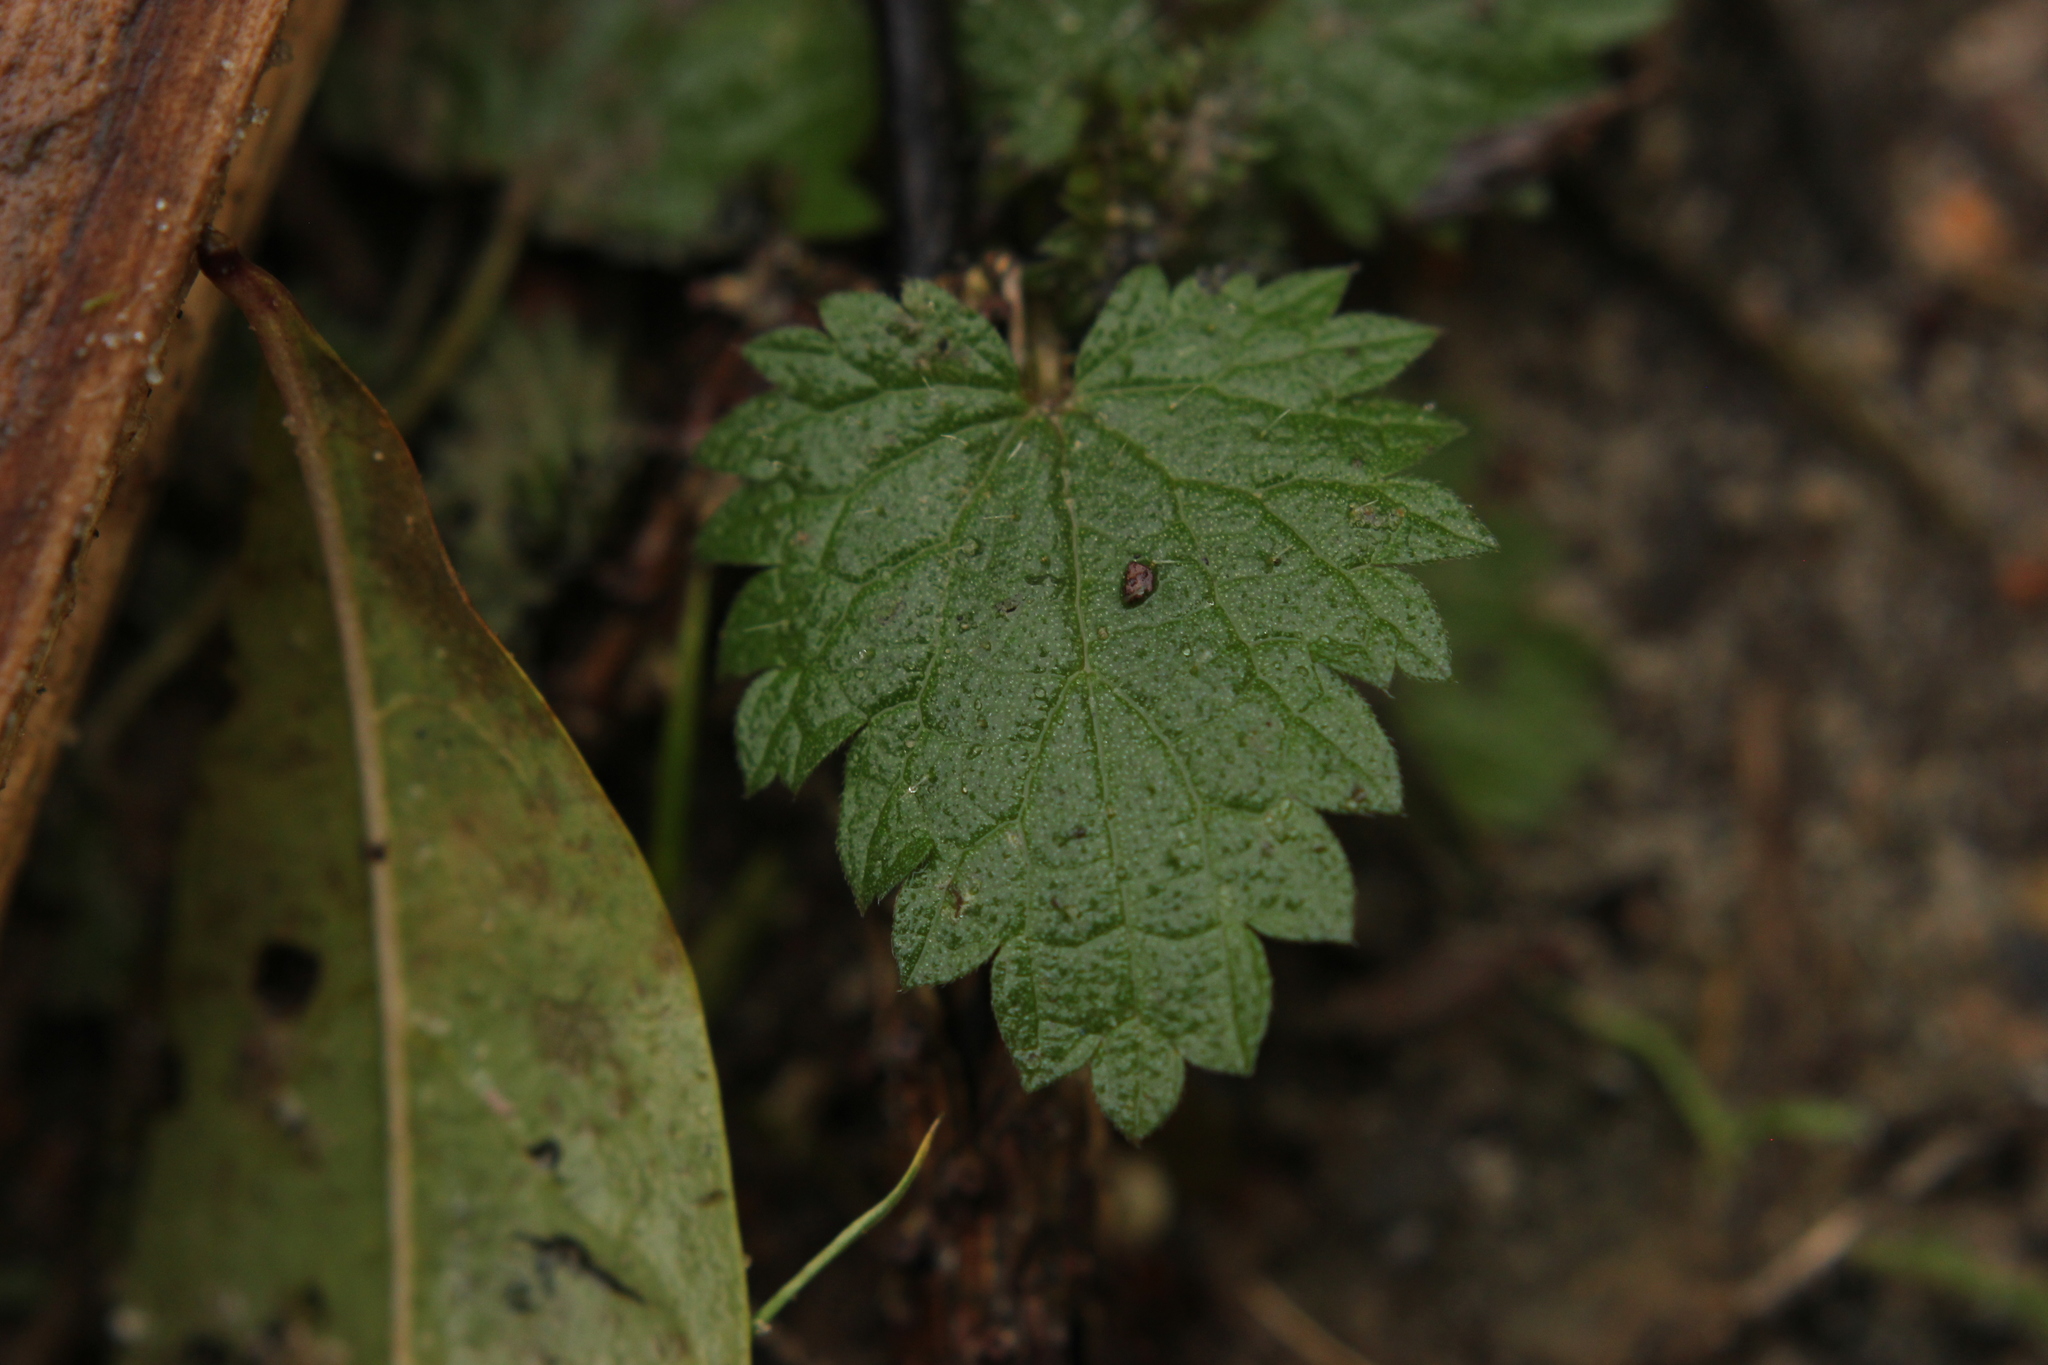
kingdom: Plantae
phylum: Tracheophyta
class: Magnoliopsida
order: Rosales
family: Urticaceae
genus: Urtica
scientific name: Urtica dioica
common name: Common nettle
